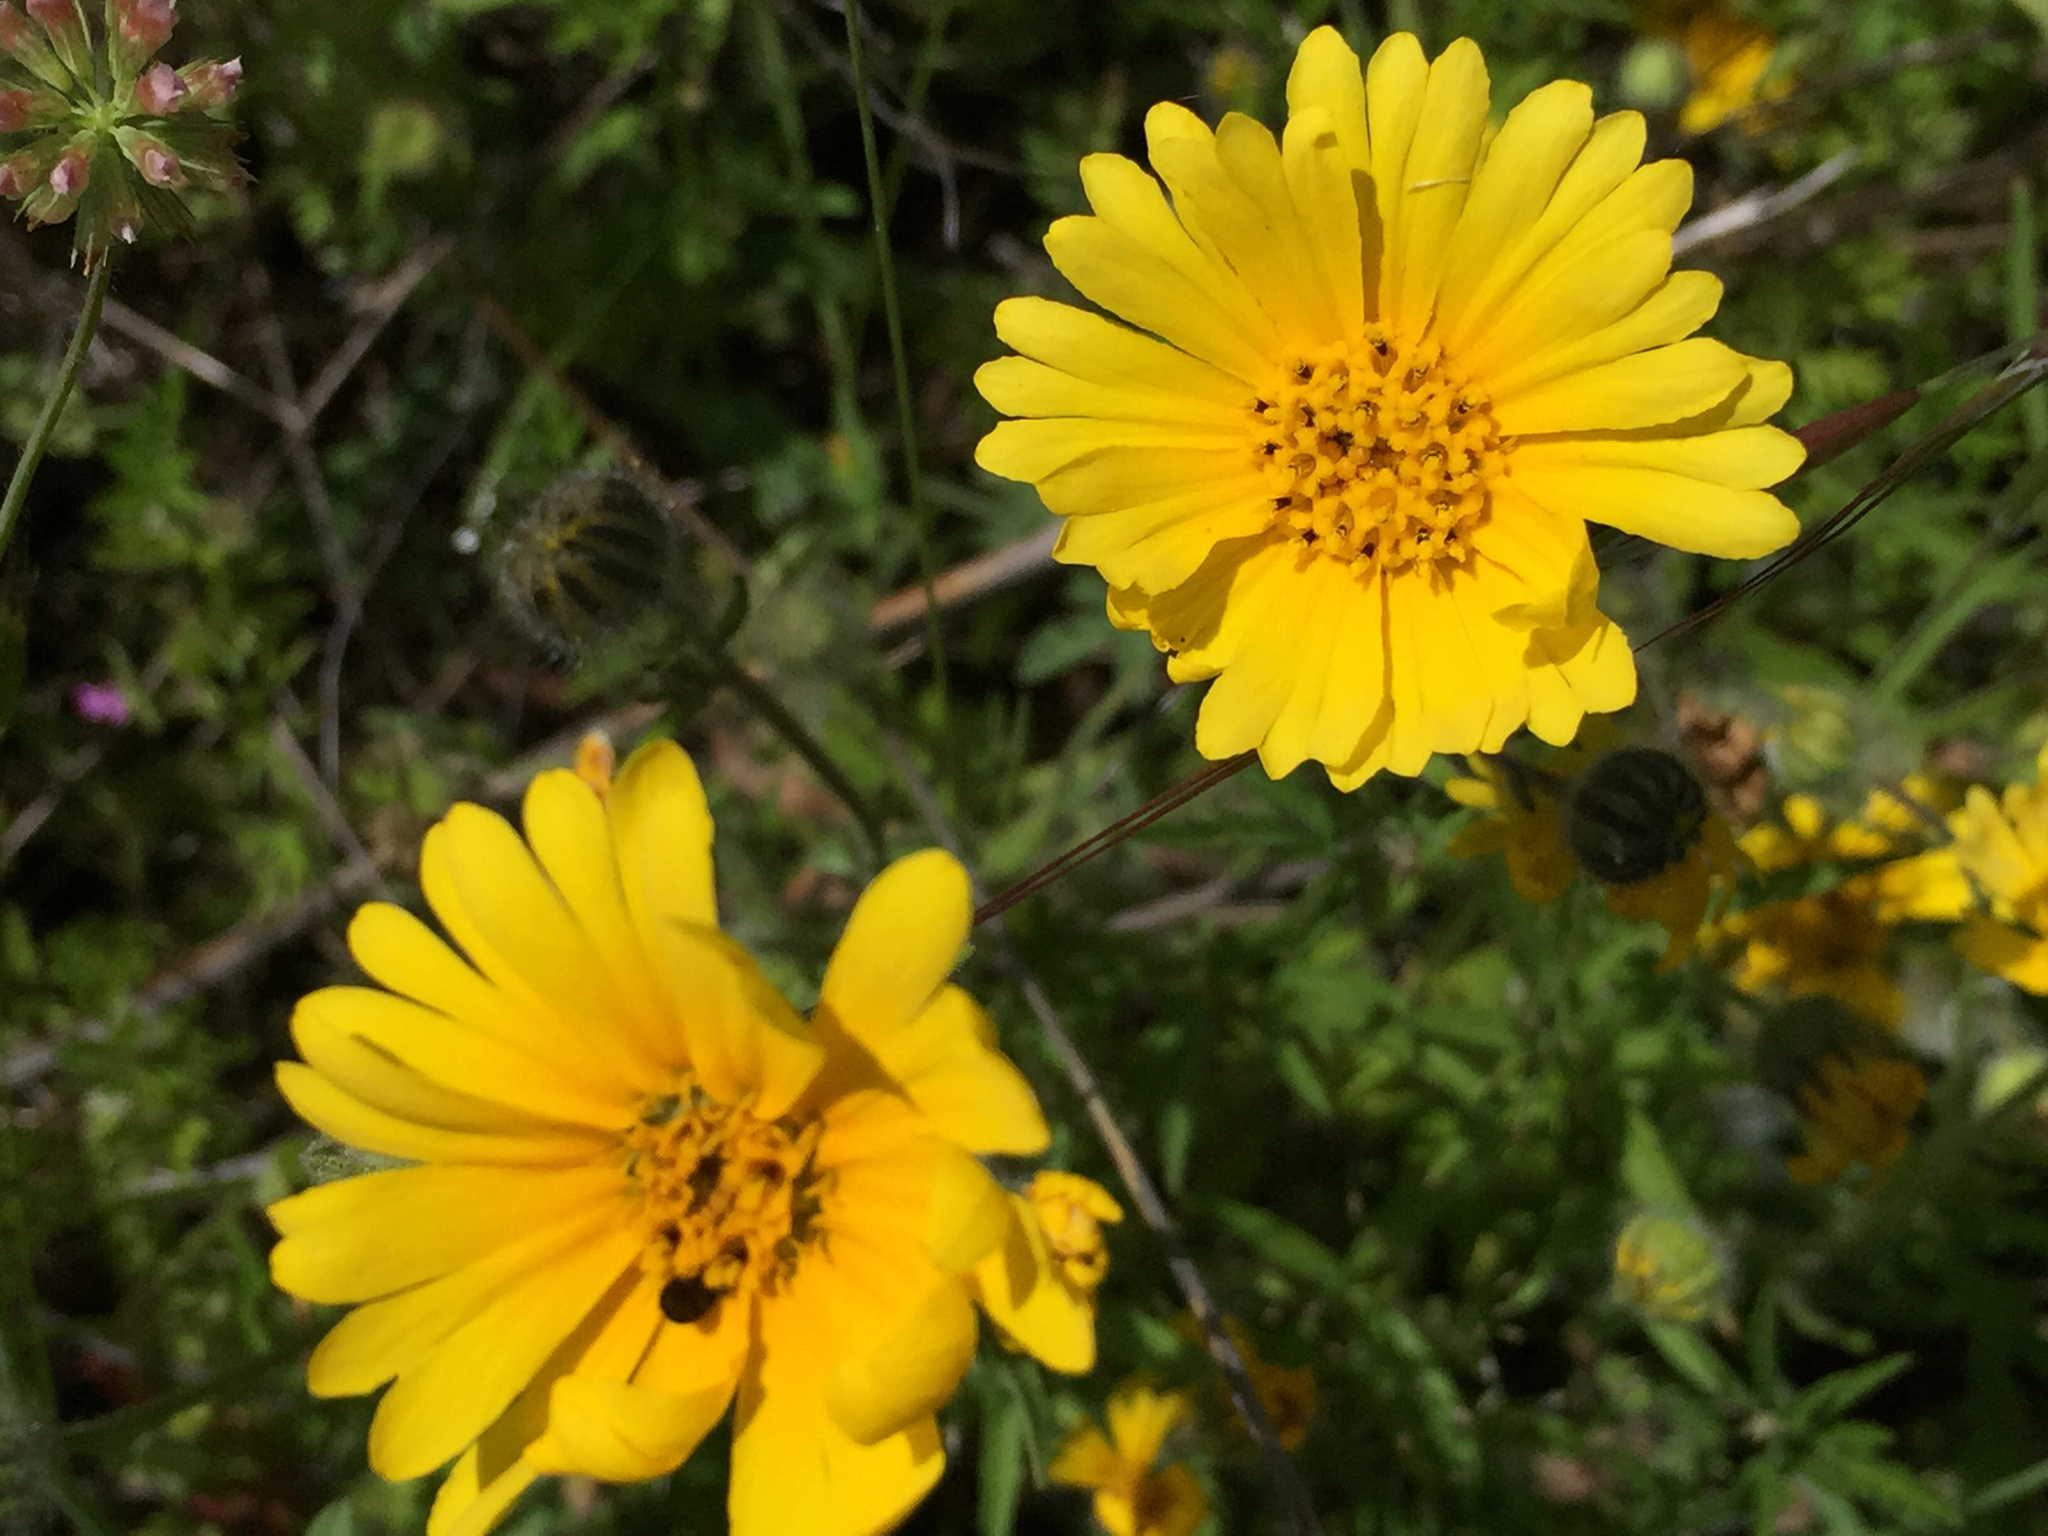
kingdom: Plantae
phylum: Tracheophyta
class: Magnoliopsida
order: Asterales
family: Asteraceae
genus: Madia
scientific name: Madia elegans
